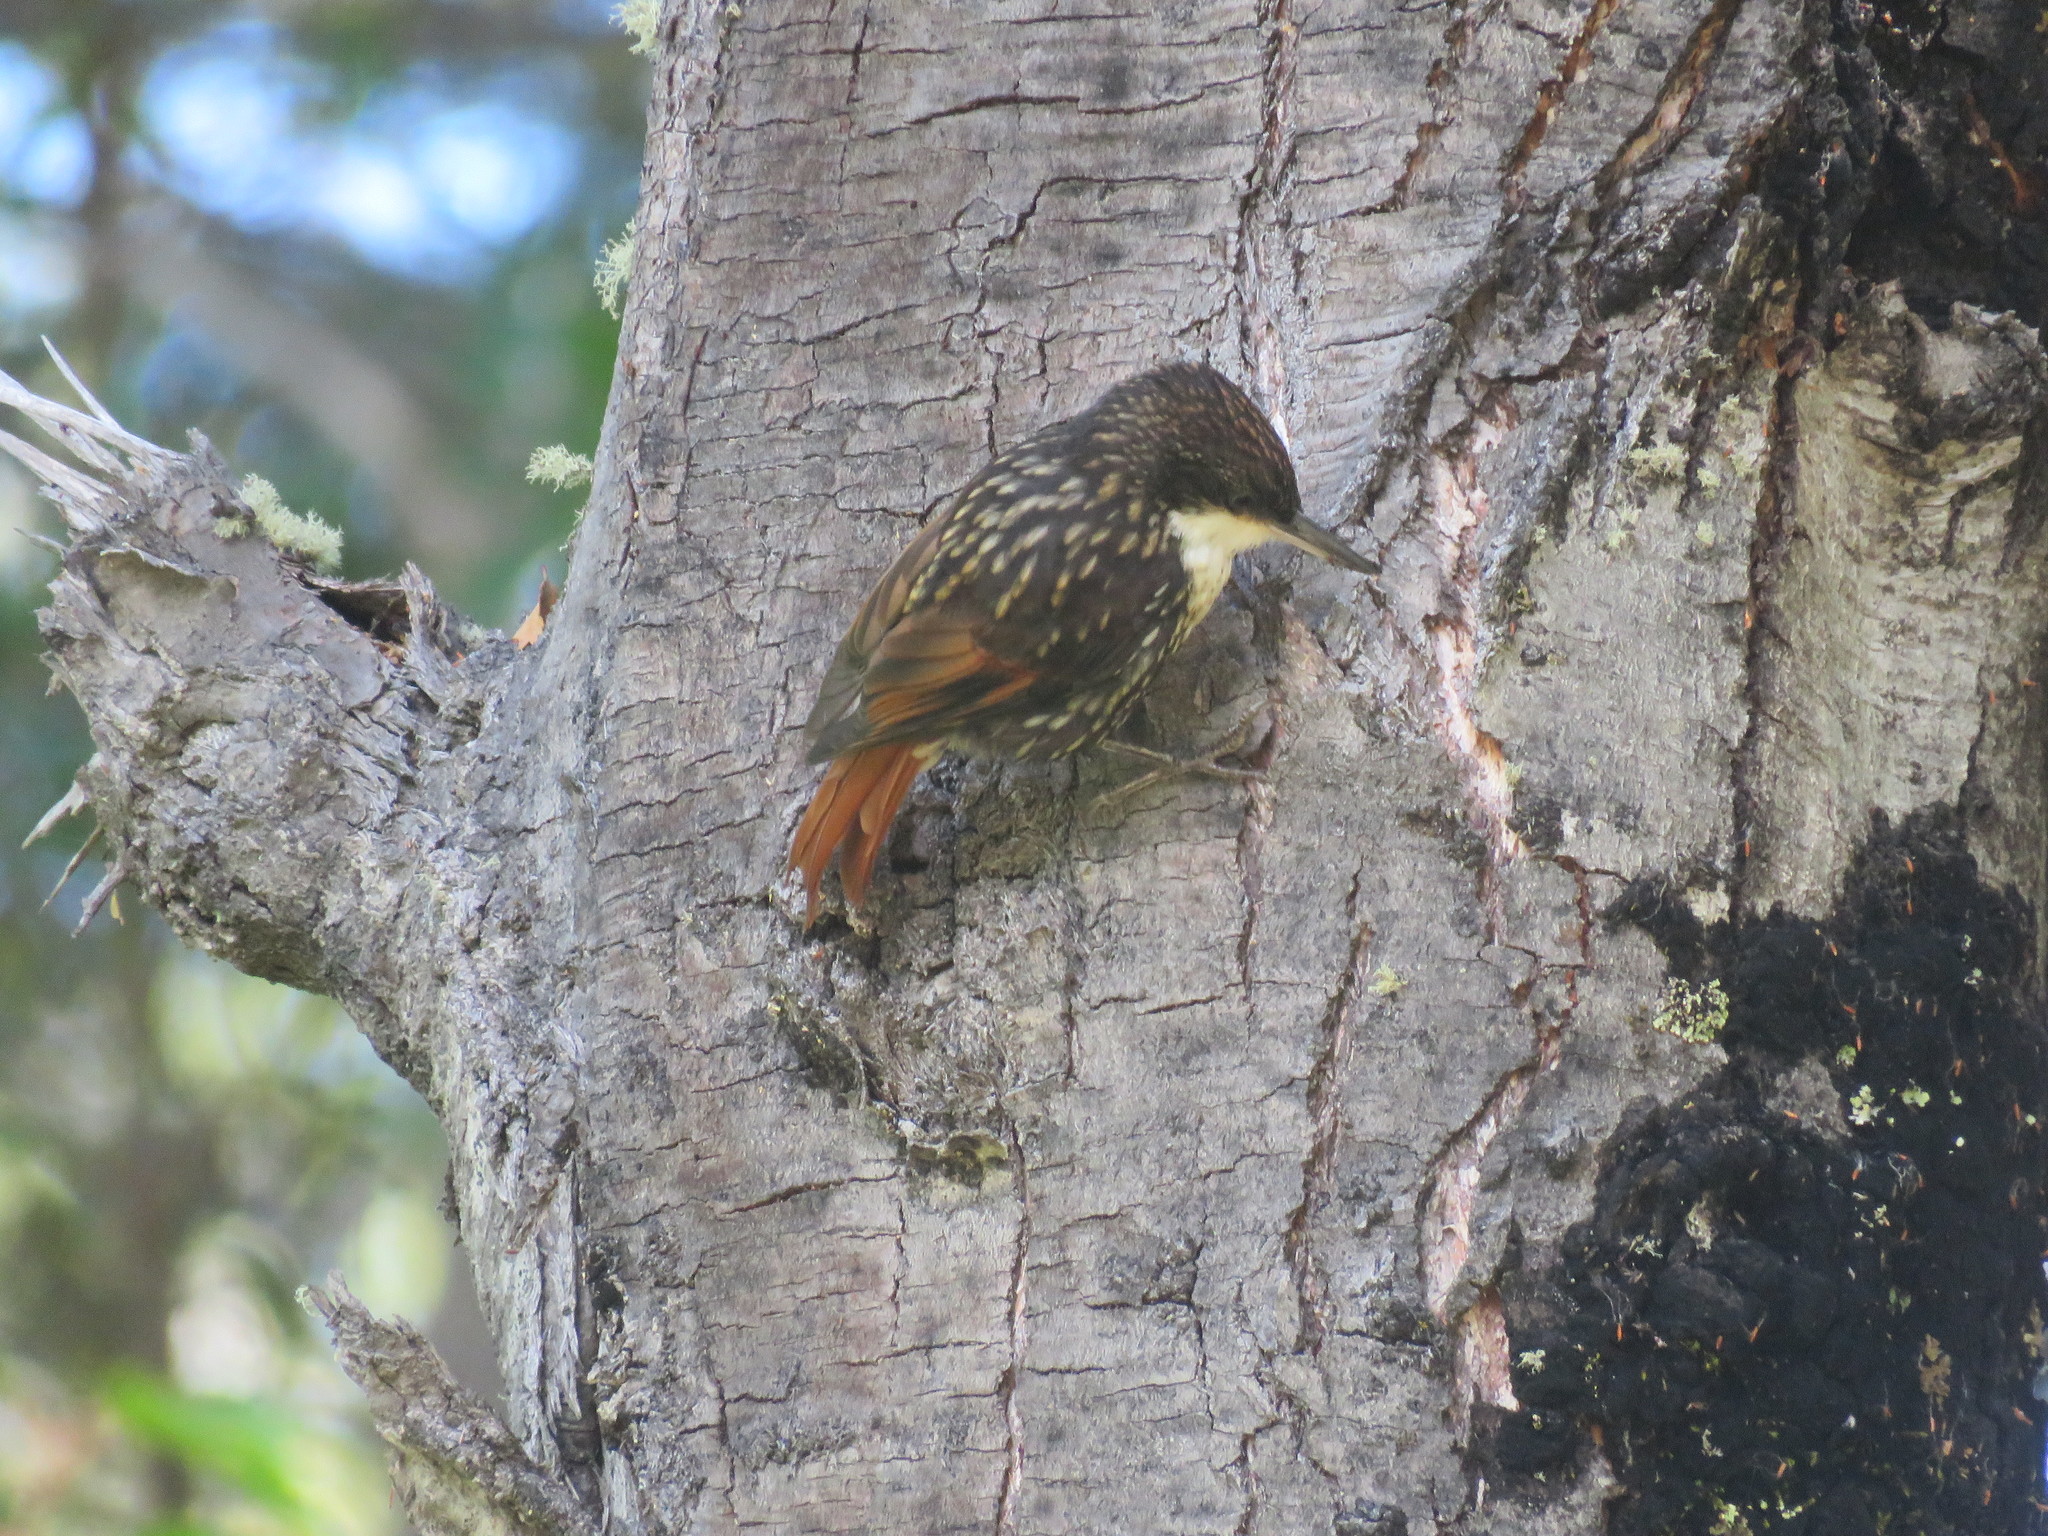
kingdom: Animalia
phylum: Chordata
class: Aves
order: Passeriformes
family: Furnariidae
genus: Pygarrhichas
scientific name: Pygarrhichas albogularis
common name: White-throated treerunner
